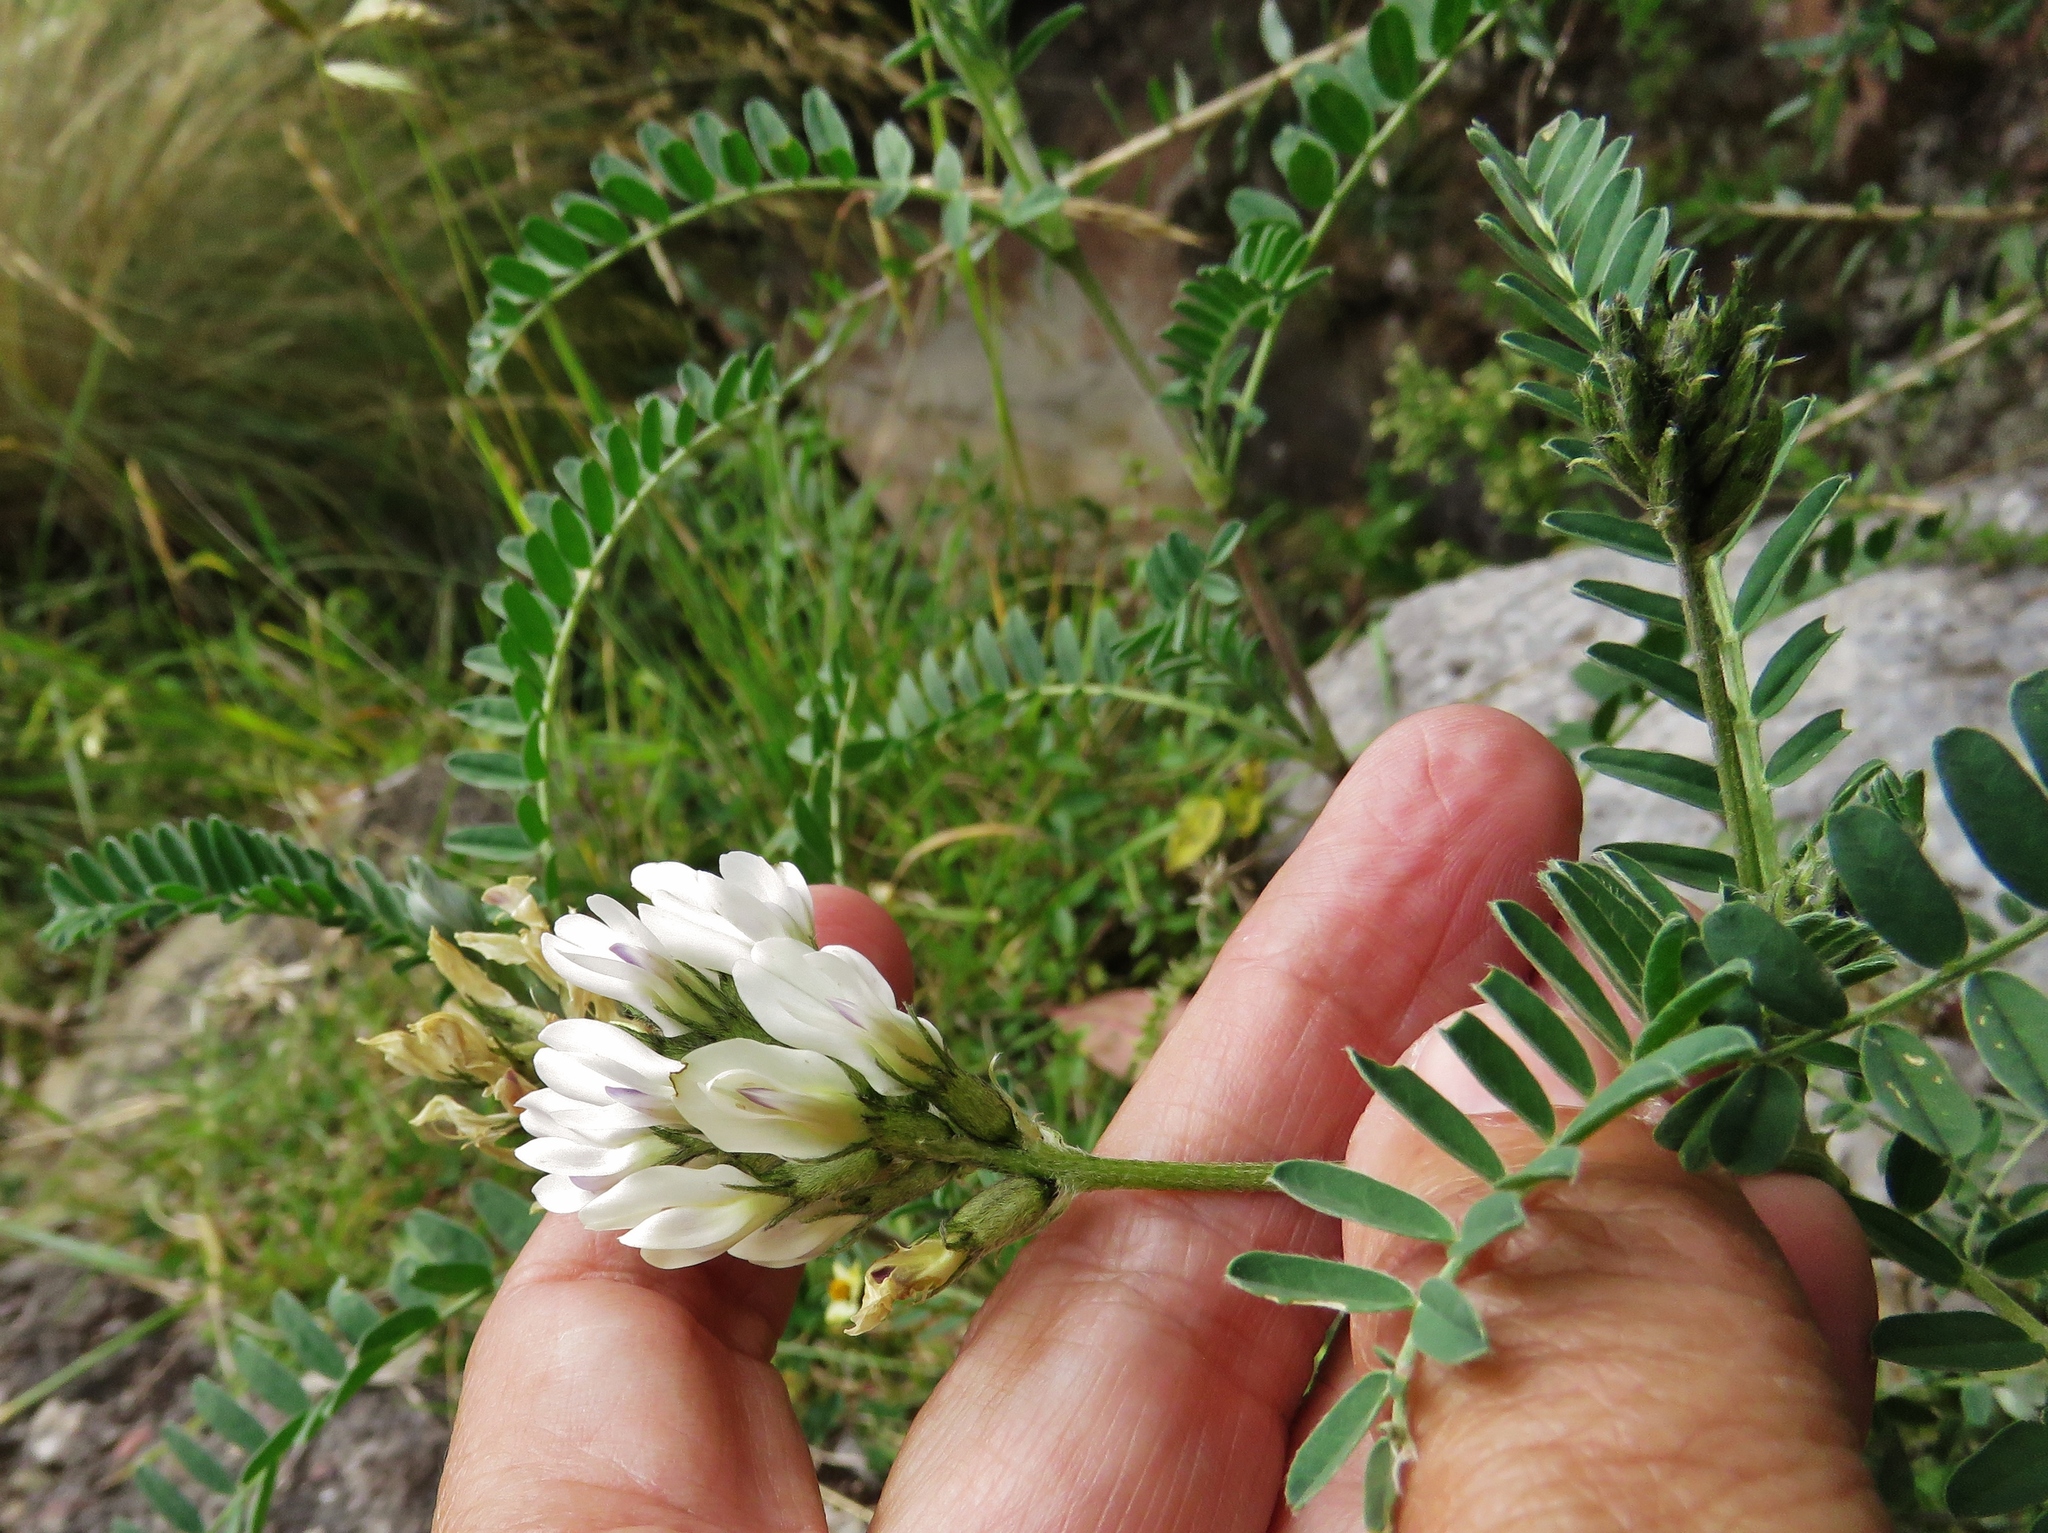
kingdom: Plantae
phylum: Tracheophyta
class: Magnoliopsida
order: Fabales
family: Fabaceae
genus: Astragalus
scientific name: Astragalus garbancillo
